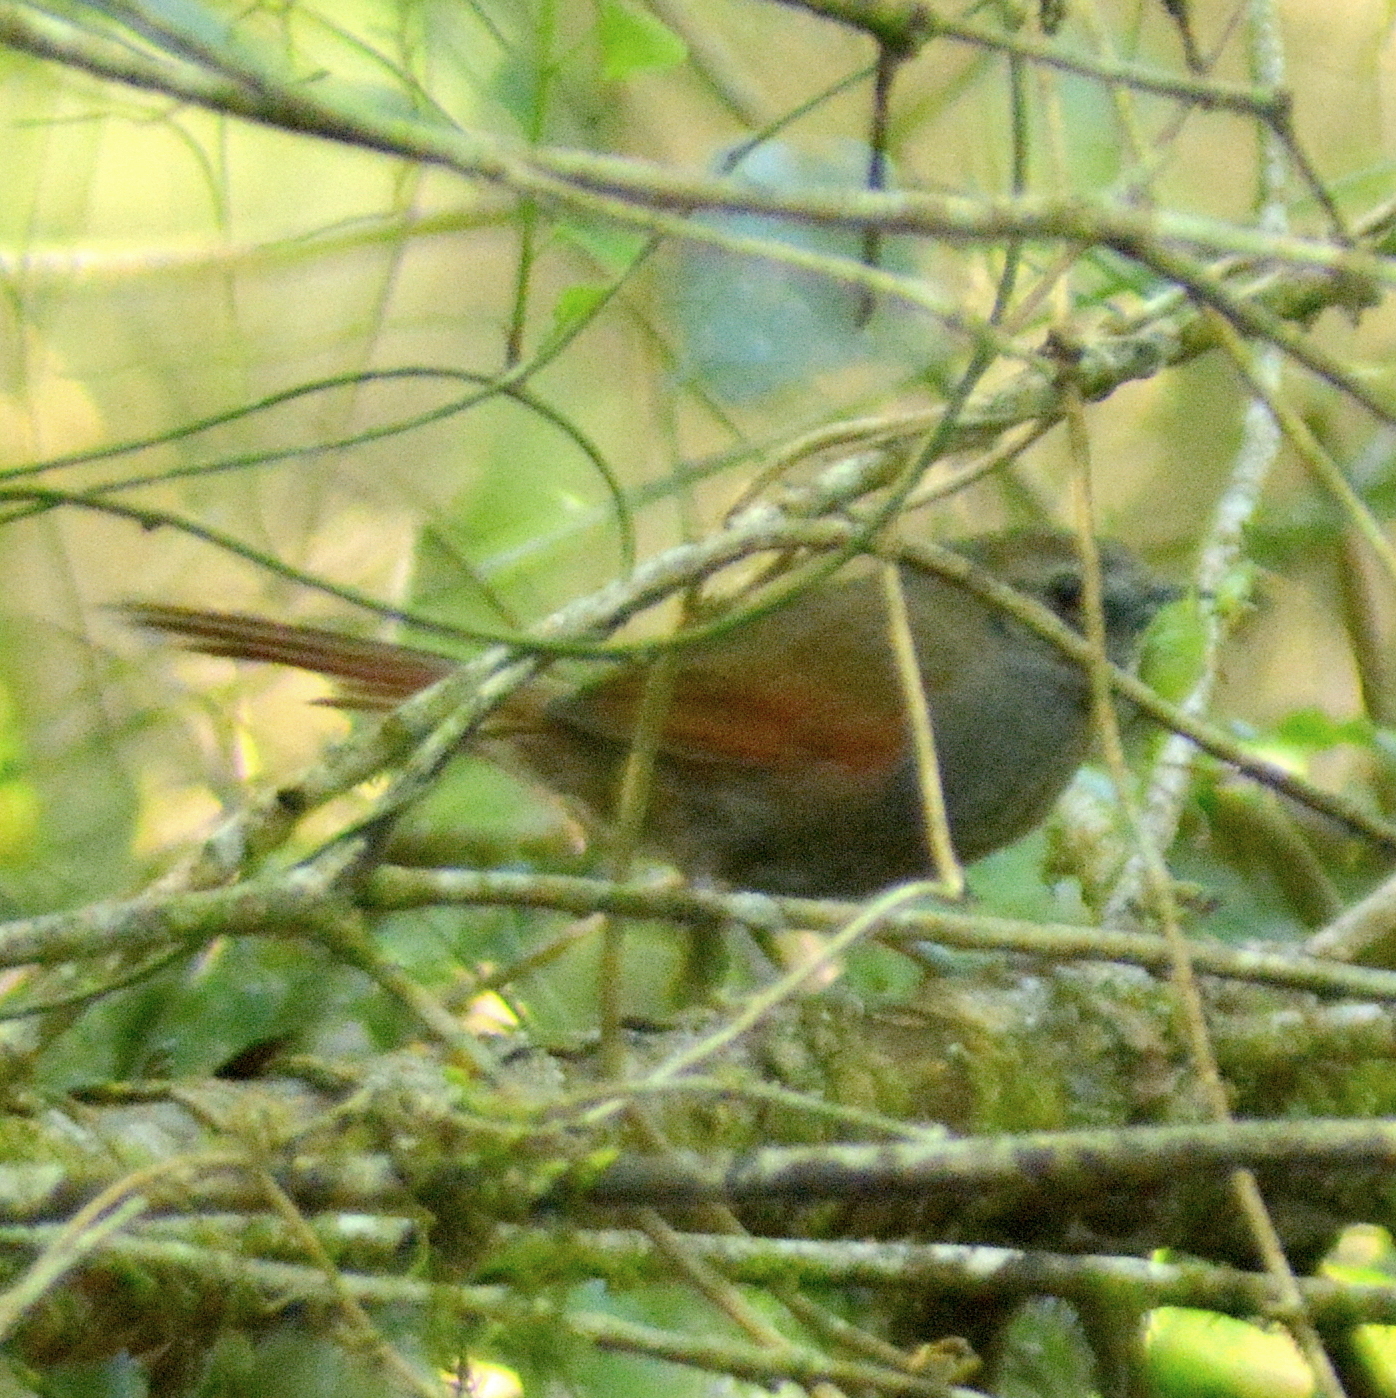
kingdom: Animalia
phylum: Chordata
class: Aves
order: Passeriformes
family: Furnariidae
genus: Synallaxis
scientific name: Synallaxis cinerascens
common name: Grey-bellied spinetail
